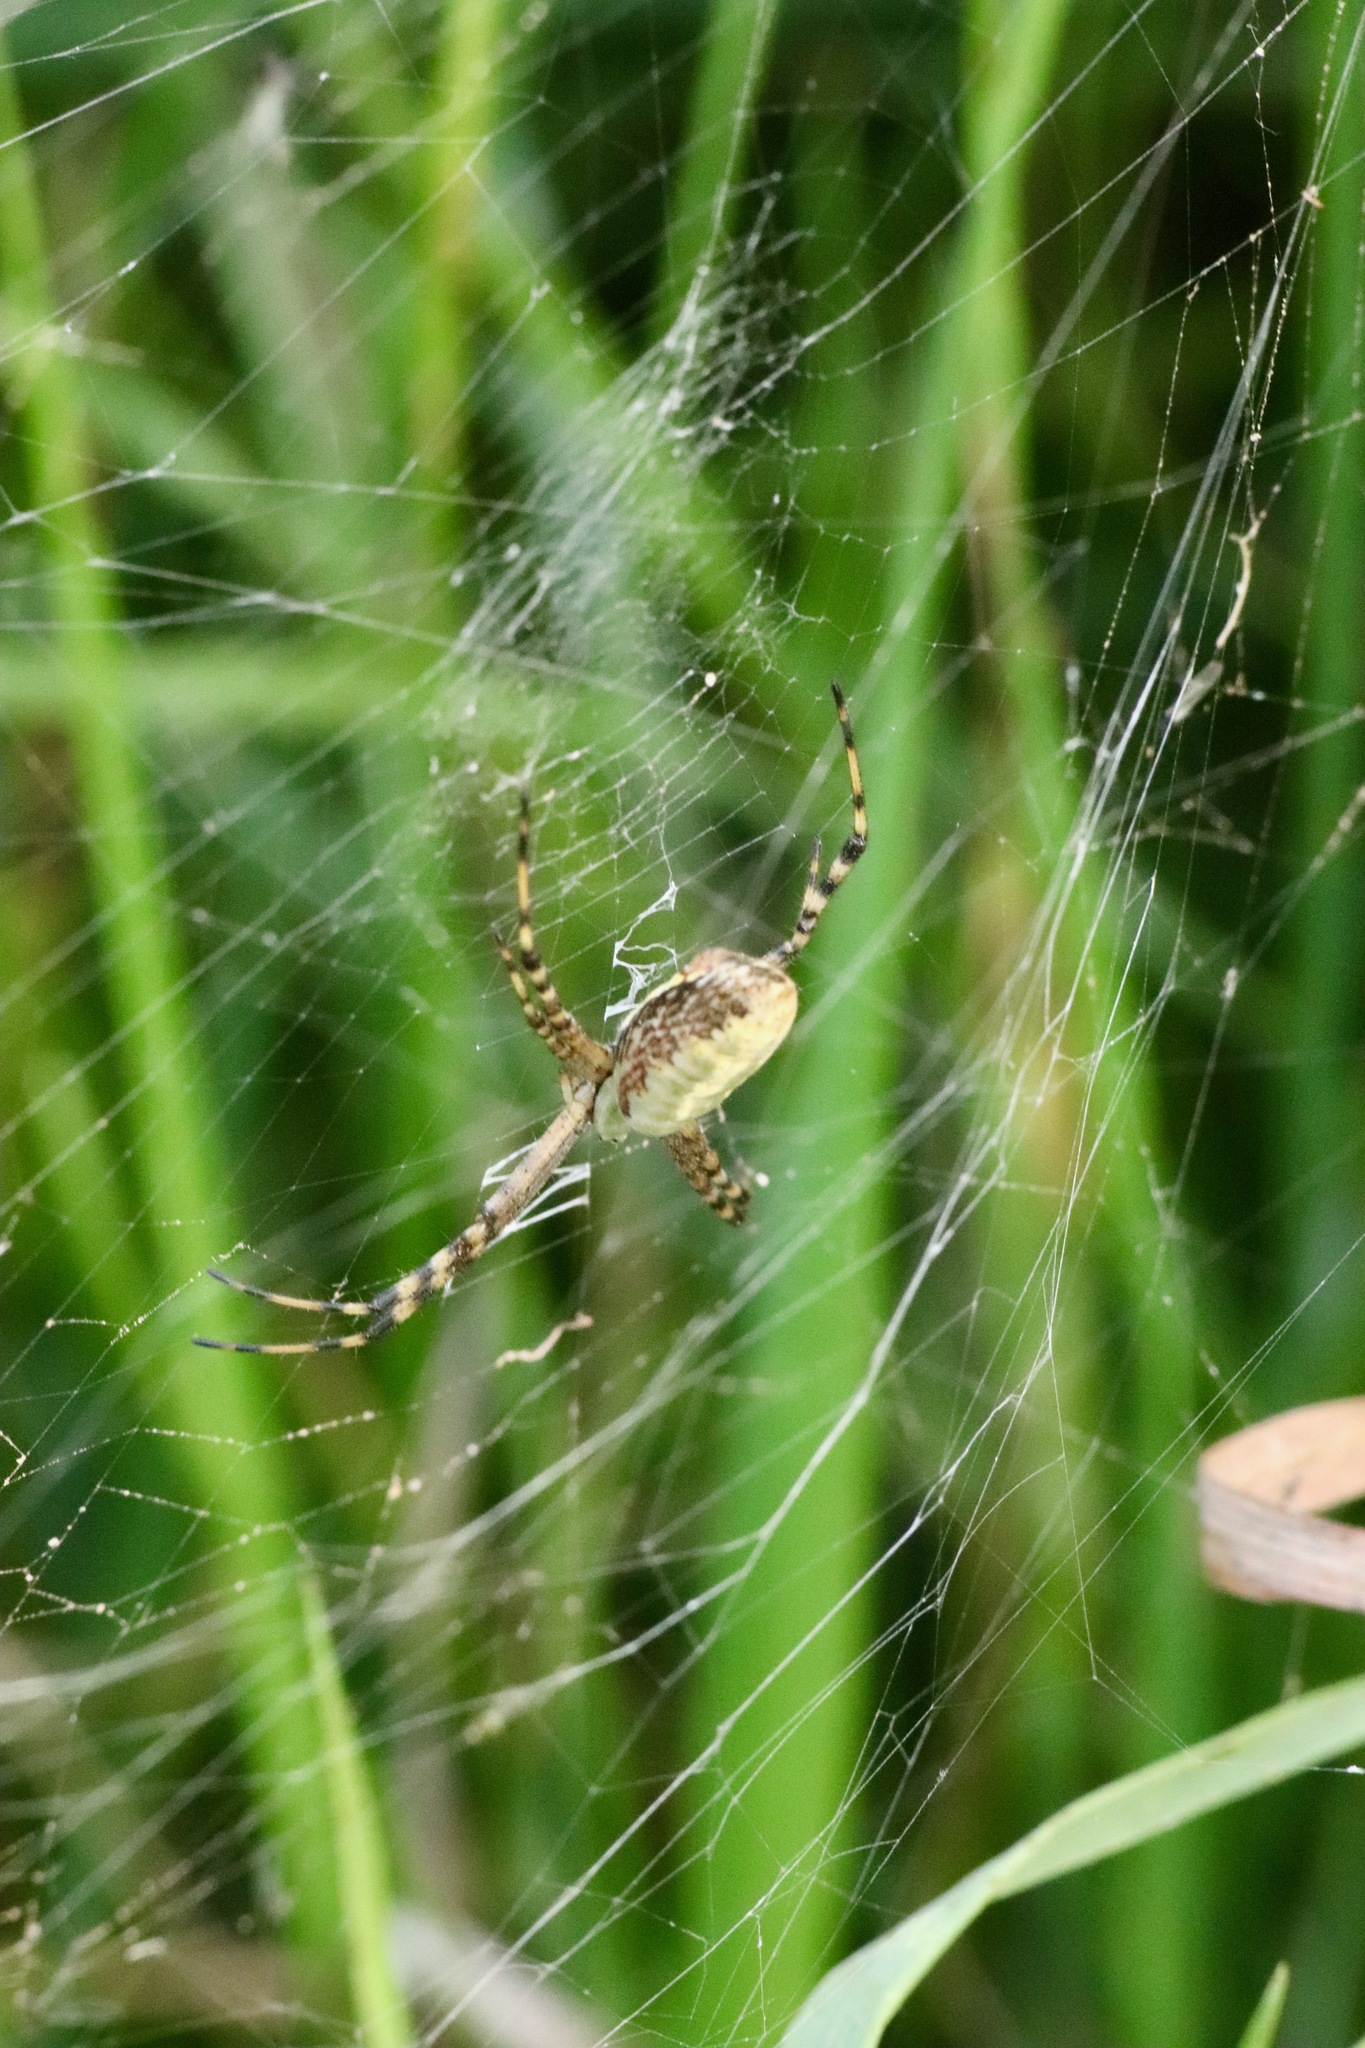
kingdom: Animalia
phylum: Arthropoda
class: Arachnida
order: Araneae
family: Araneidae
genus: Argiope
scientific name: Argiope aurantia
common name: Orb weavers
